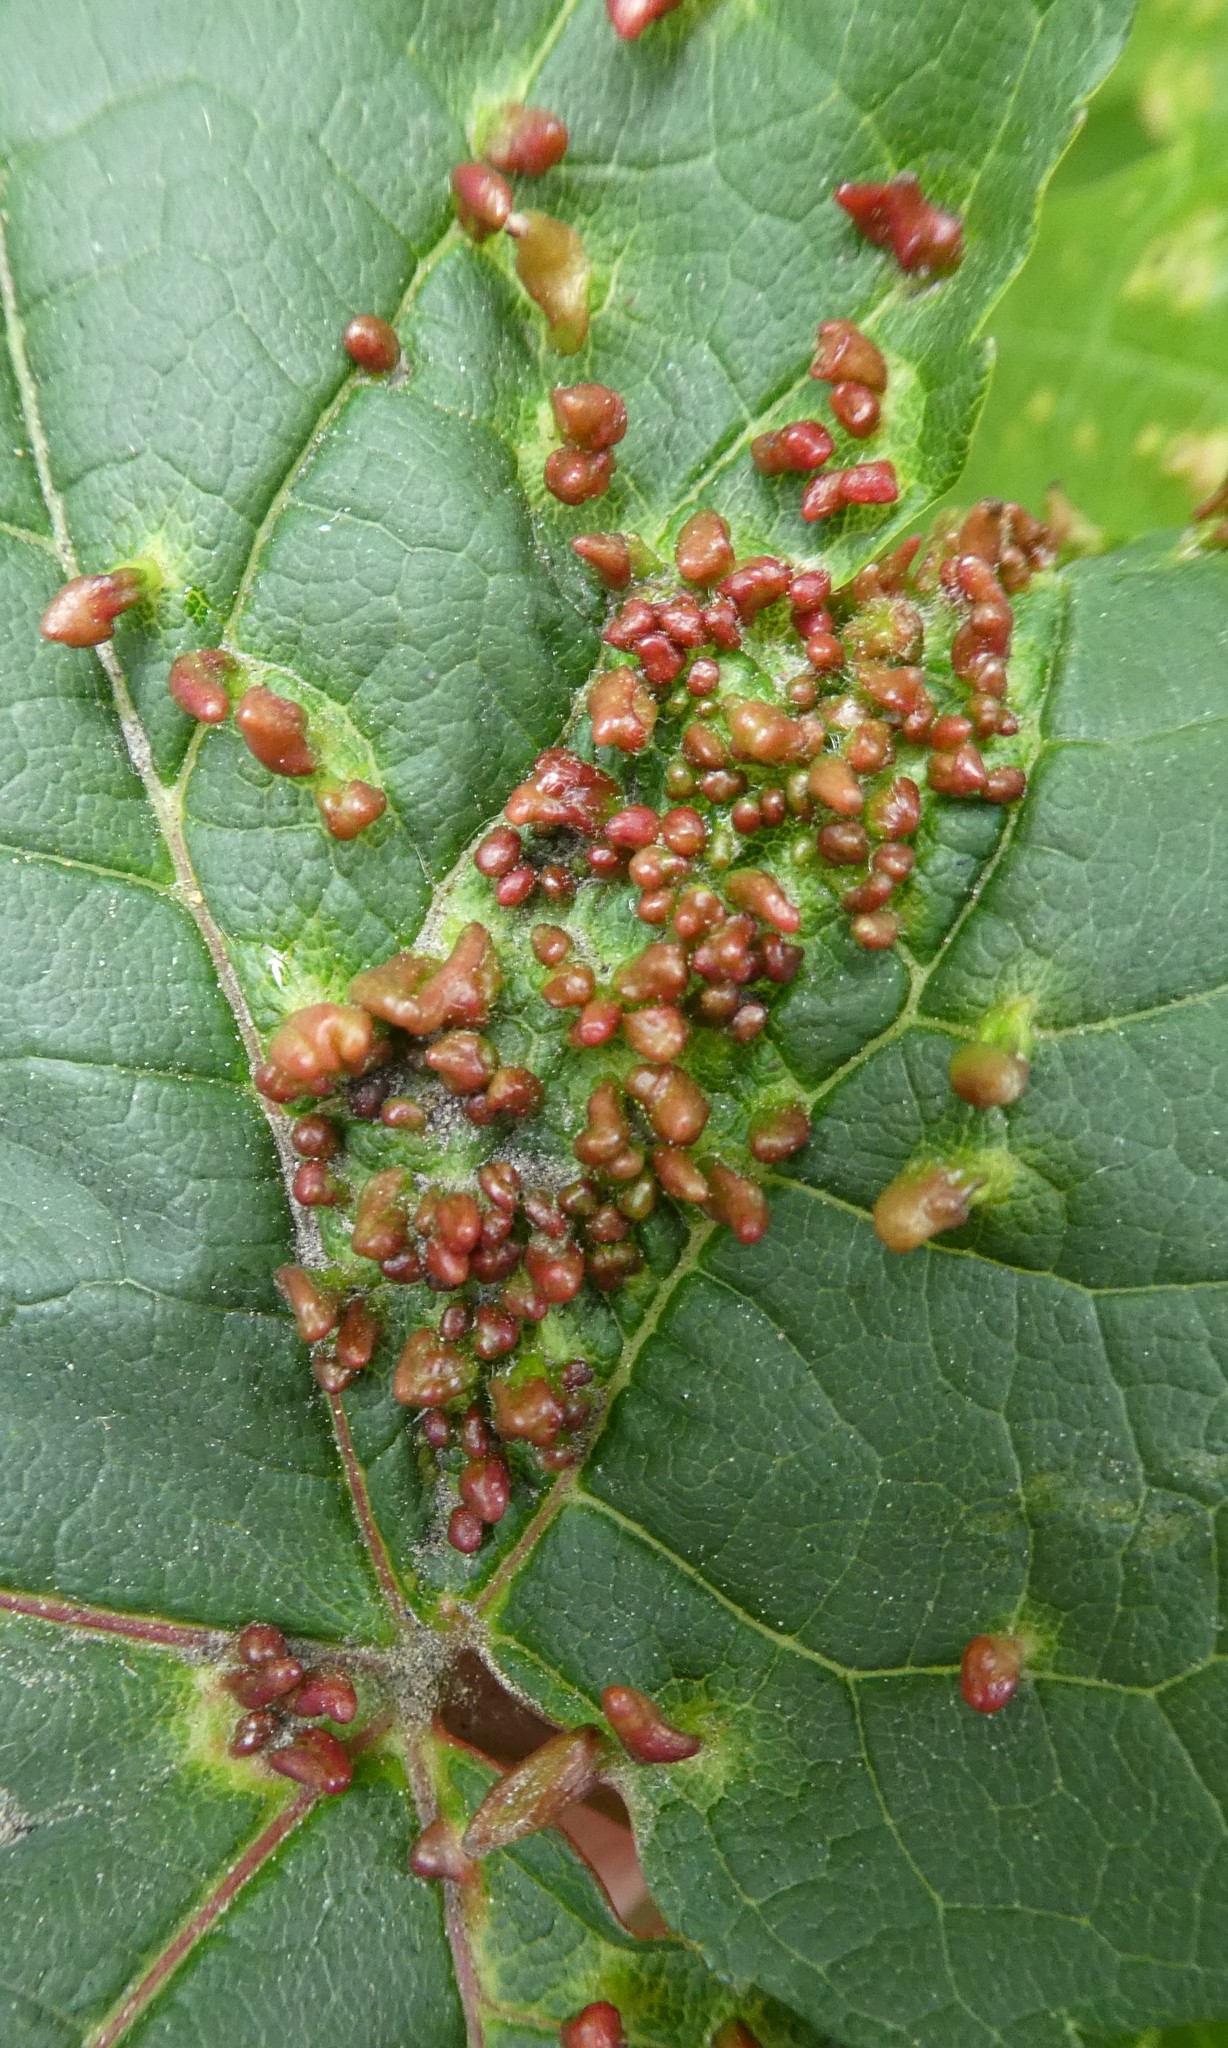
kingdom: Animalia
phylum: Arthropoda
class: Arachnida
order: Trombidiformes
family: Eriophyidae
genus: Aceria
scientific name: Aceria cephaloneus
